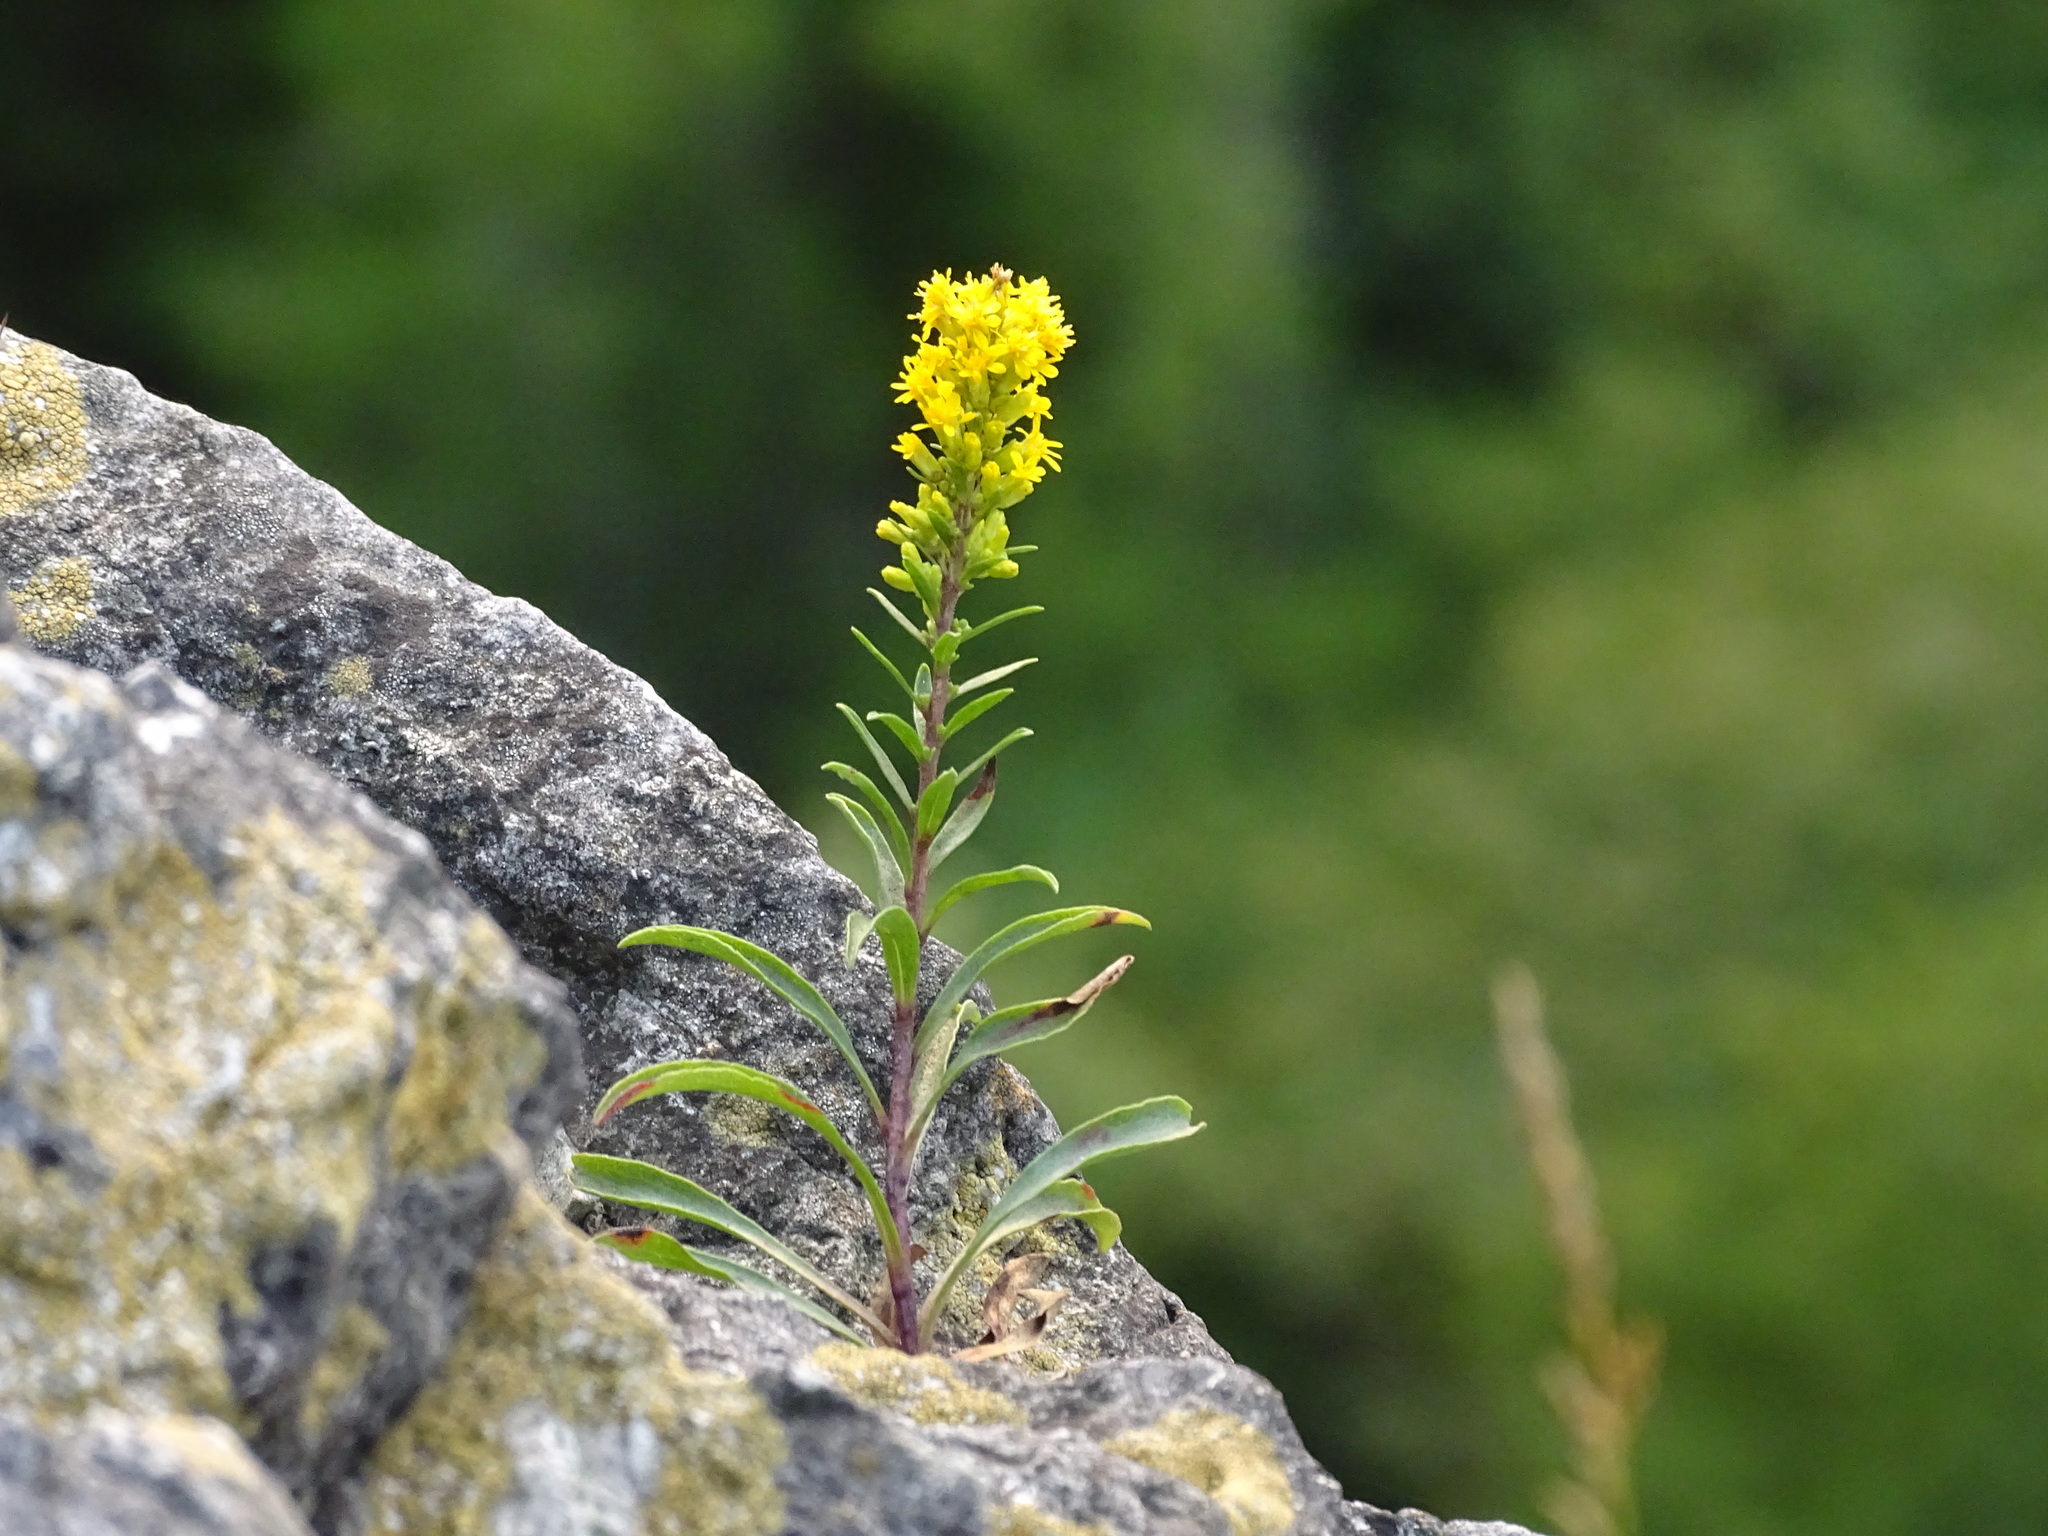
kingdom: Plantae
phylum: Tracheophyta
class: Magnoliopsida
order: Asterales
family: Asteraceae
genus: Solidago
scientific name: Solidago ontarioensis
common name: Ontario goldenrod
